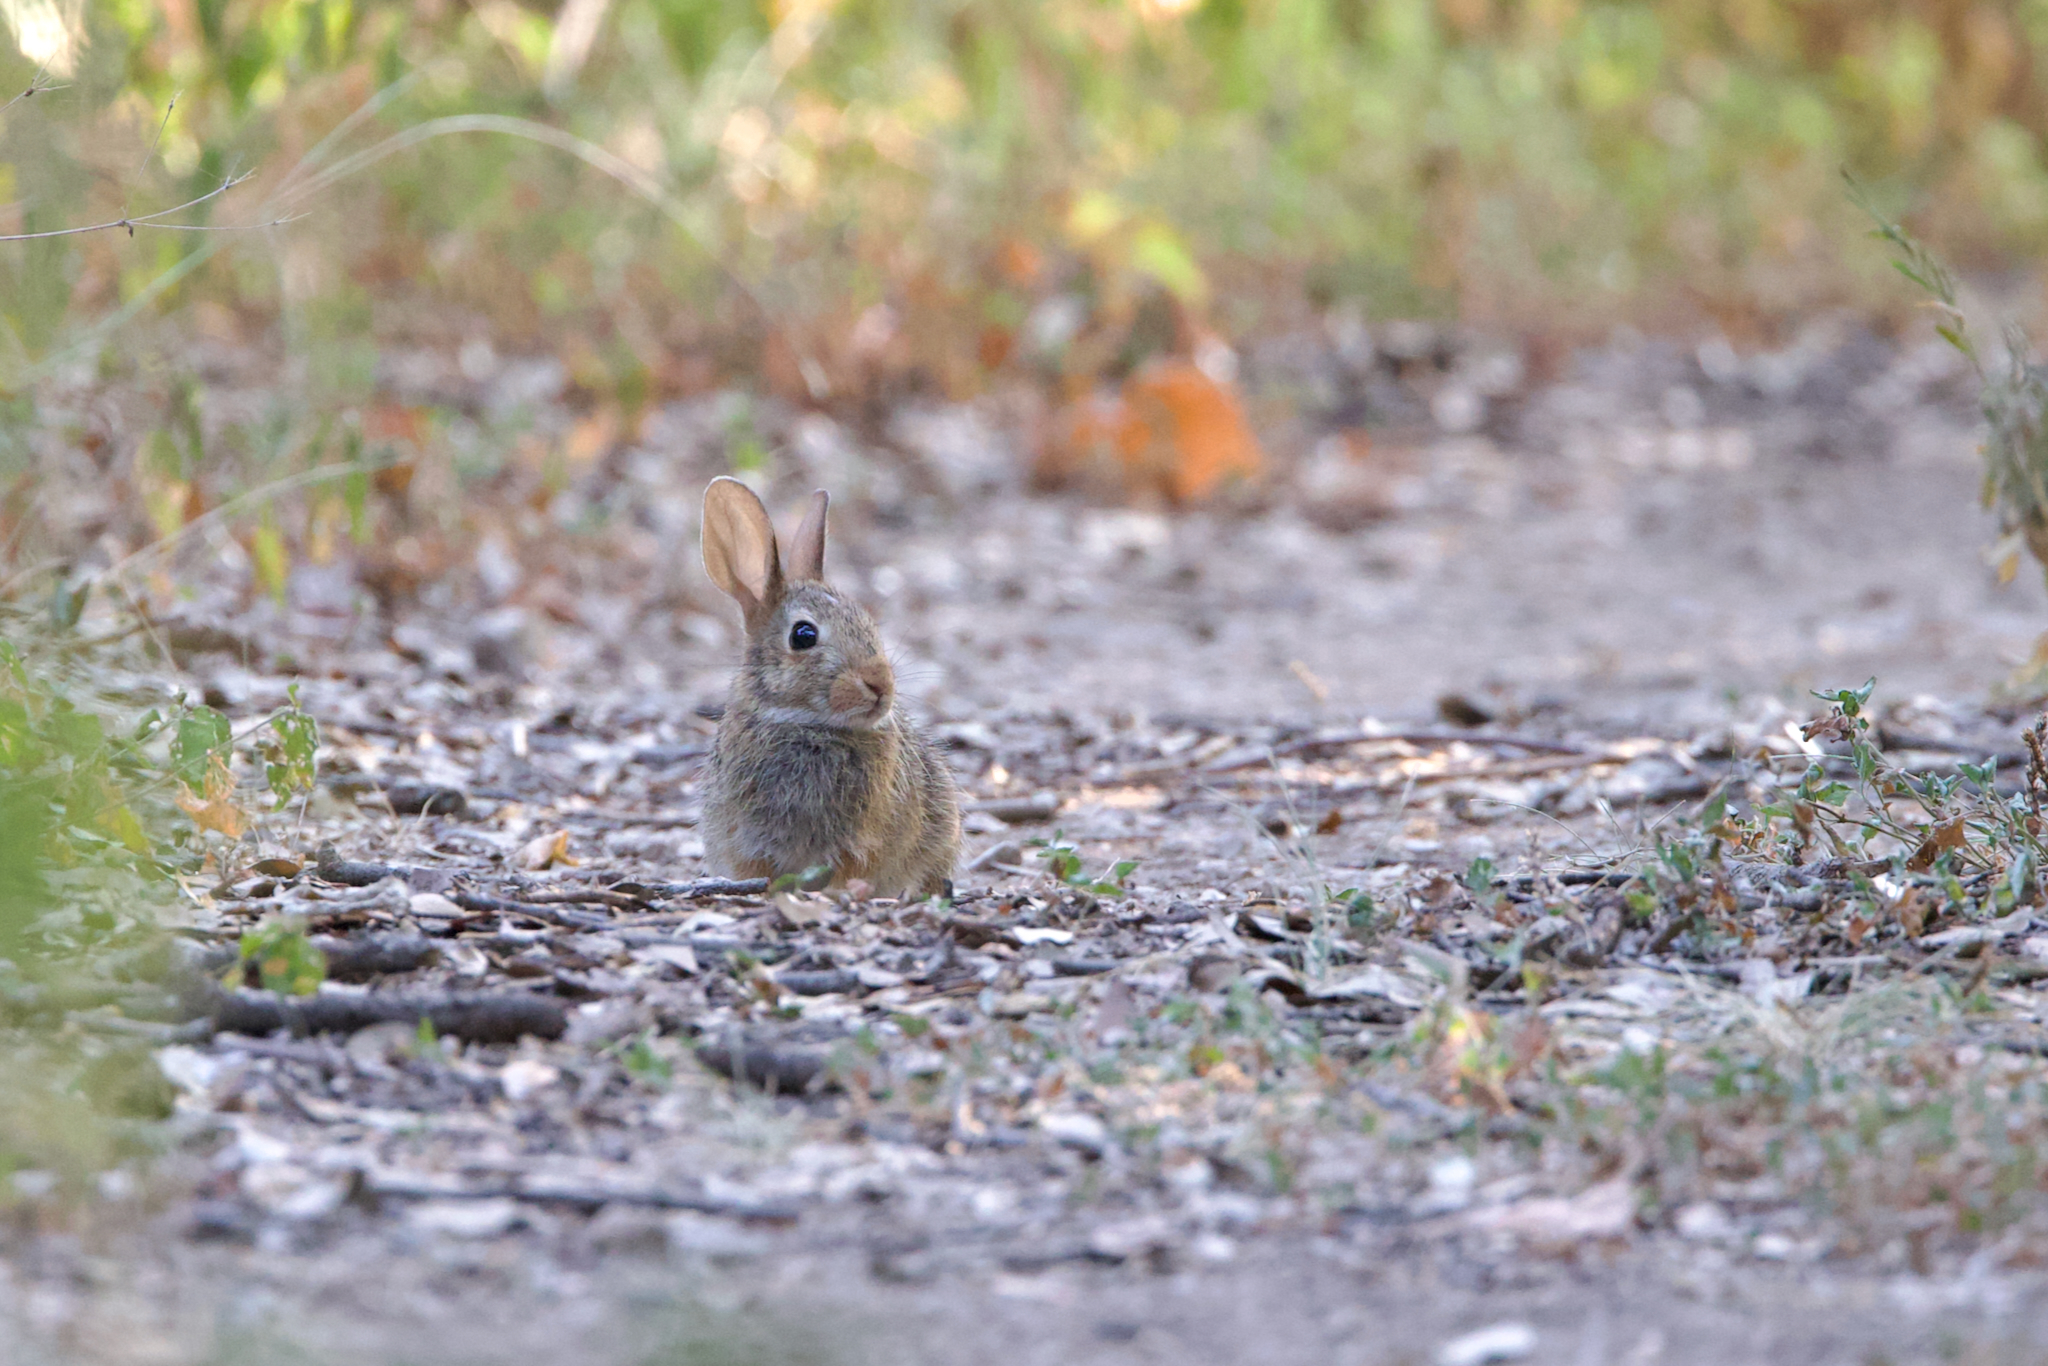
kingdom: Animalia
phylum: Chordata
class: Mammalia
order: Lagomorpha
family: Leporidae
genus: Sylvilagus
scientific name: Sylvilagus floridanus
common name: Eastern cottontail
